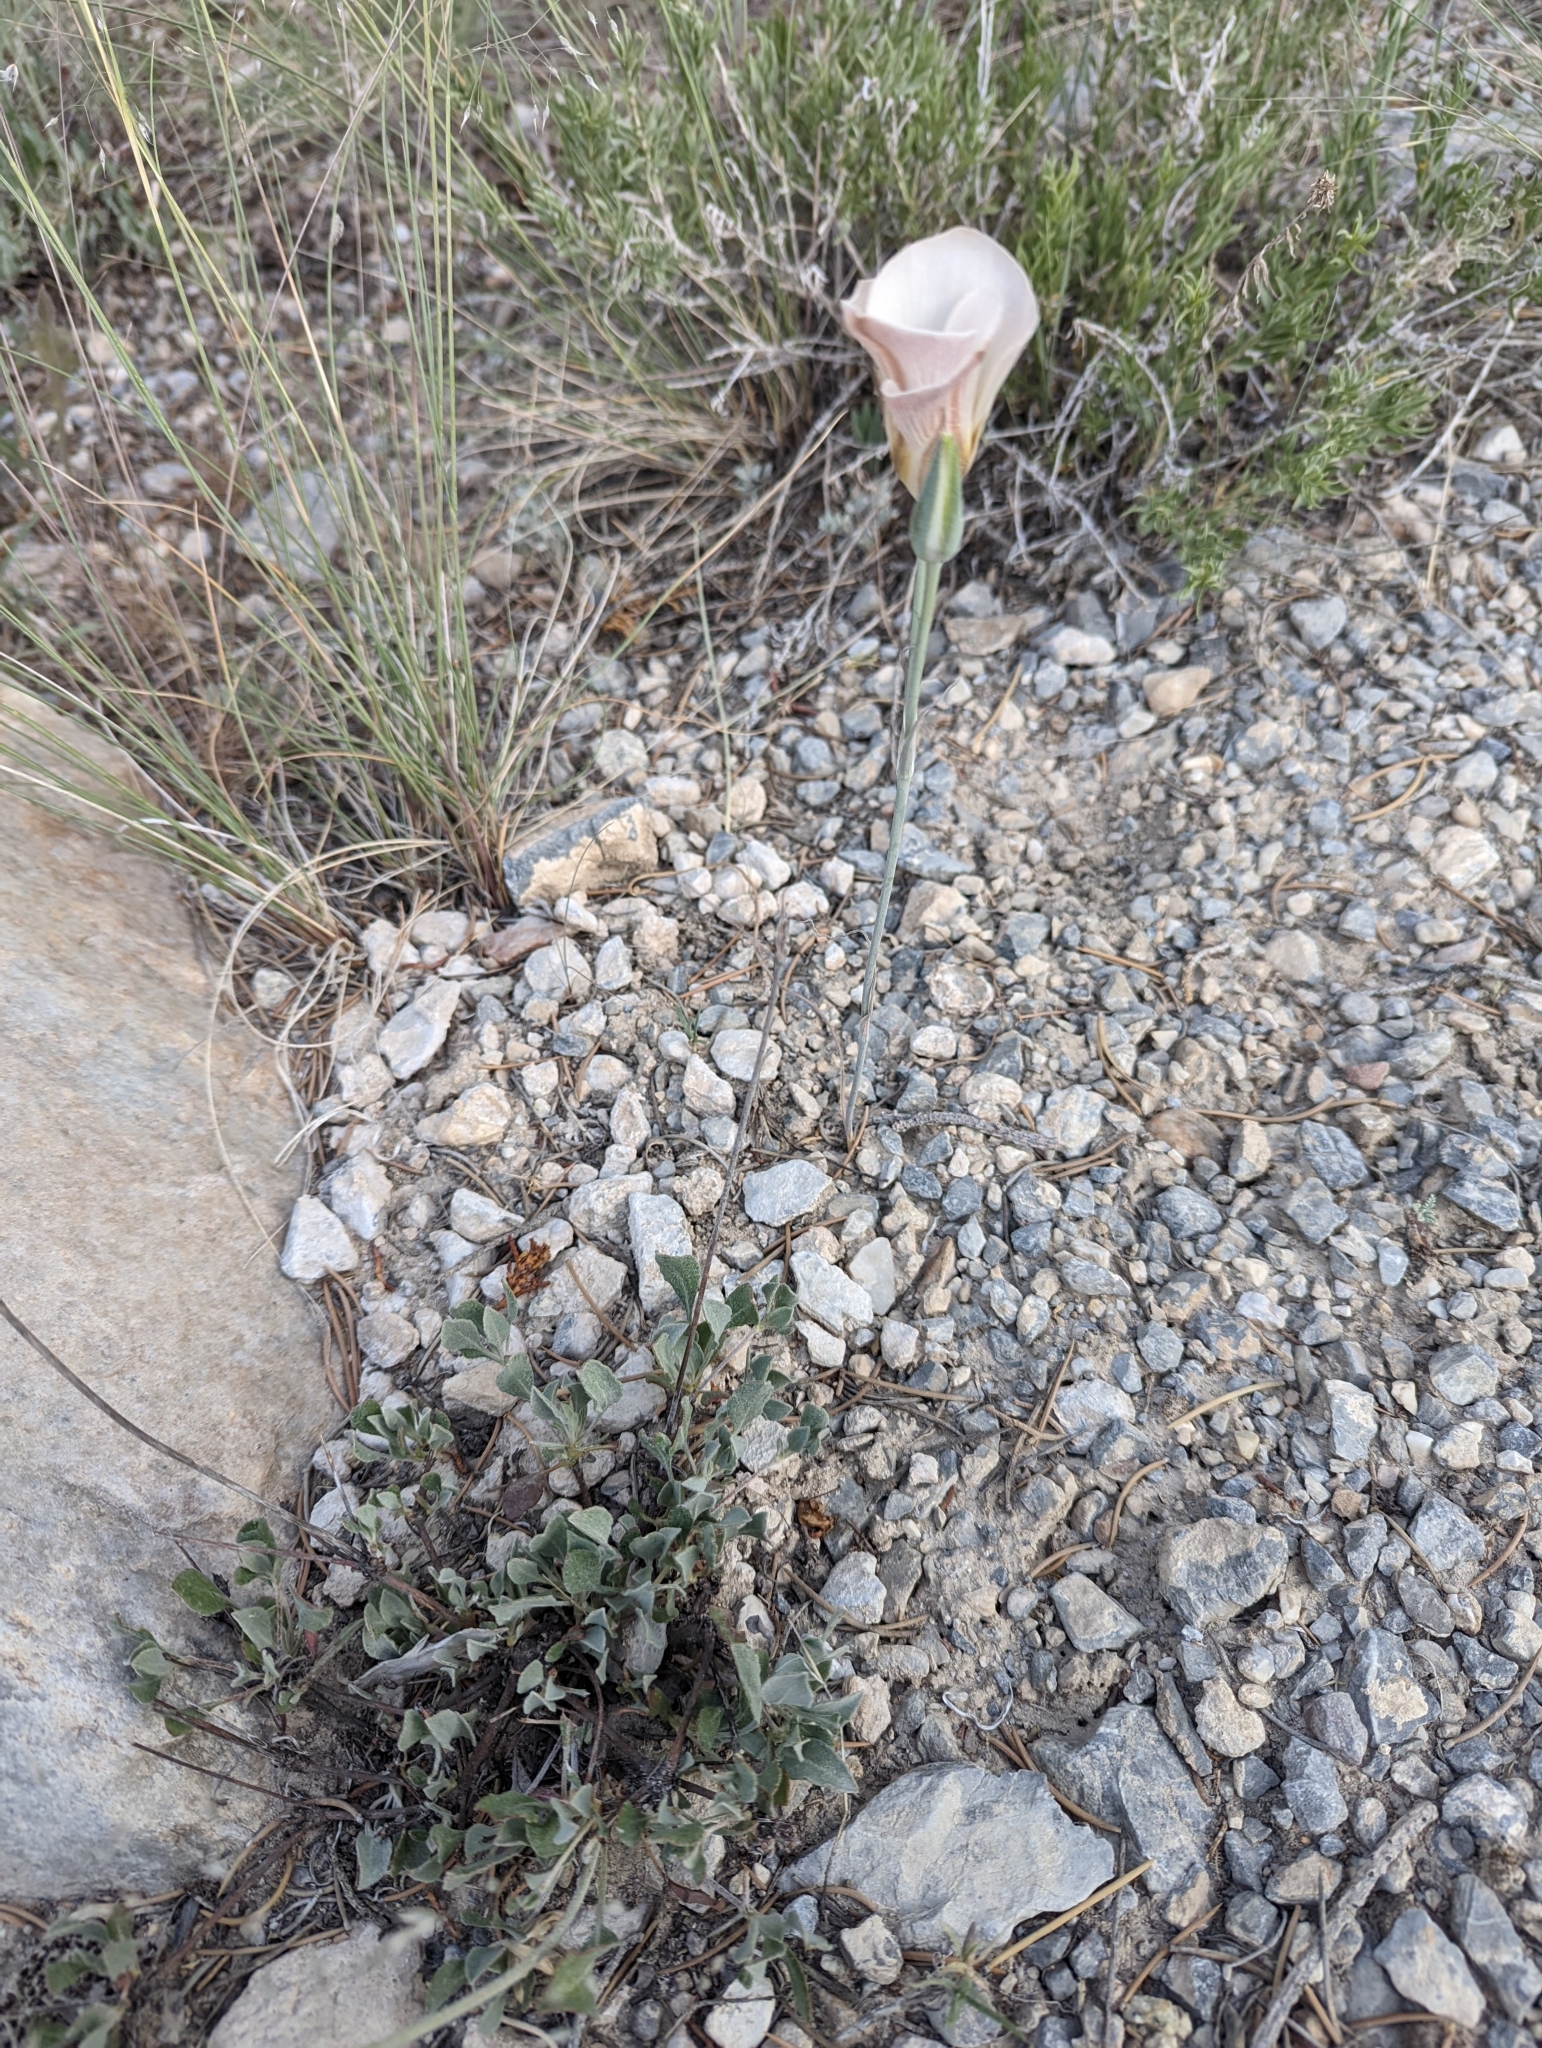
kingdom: Plantae
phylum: Tracheophyta
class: Liliopsida
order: Liliales
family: Liliaceae
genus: Calochortus
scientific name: Calochortus nuttallii
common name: Sego-lily
